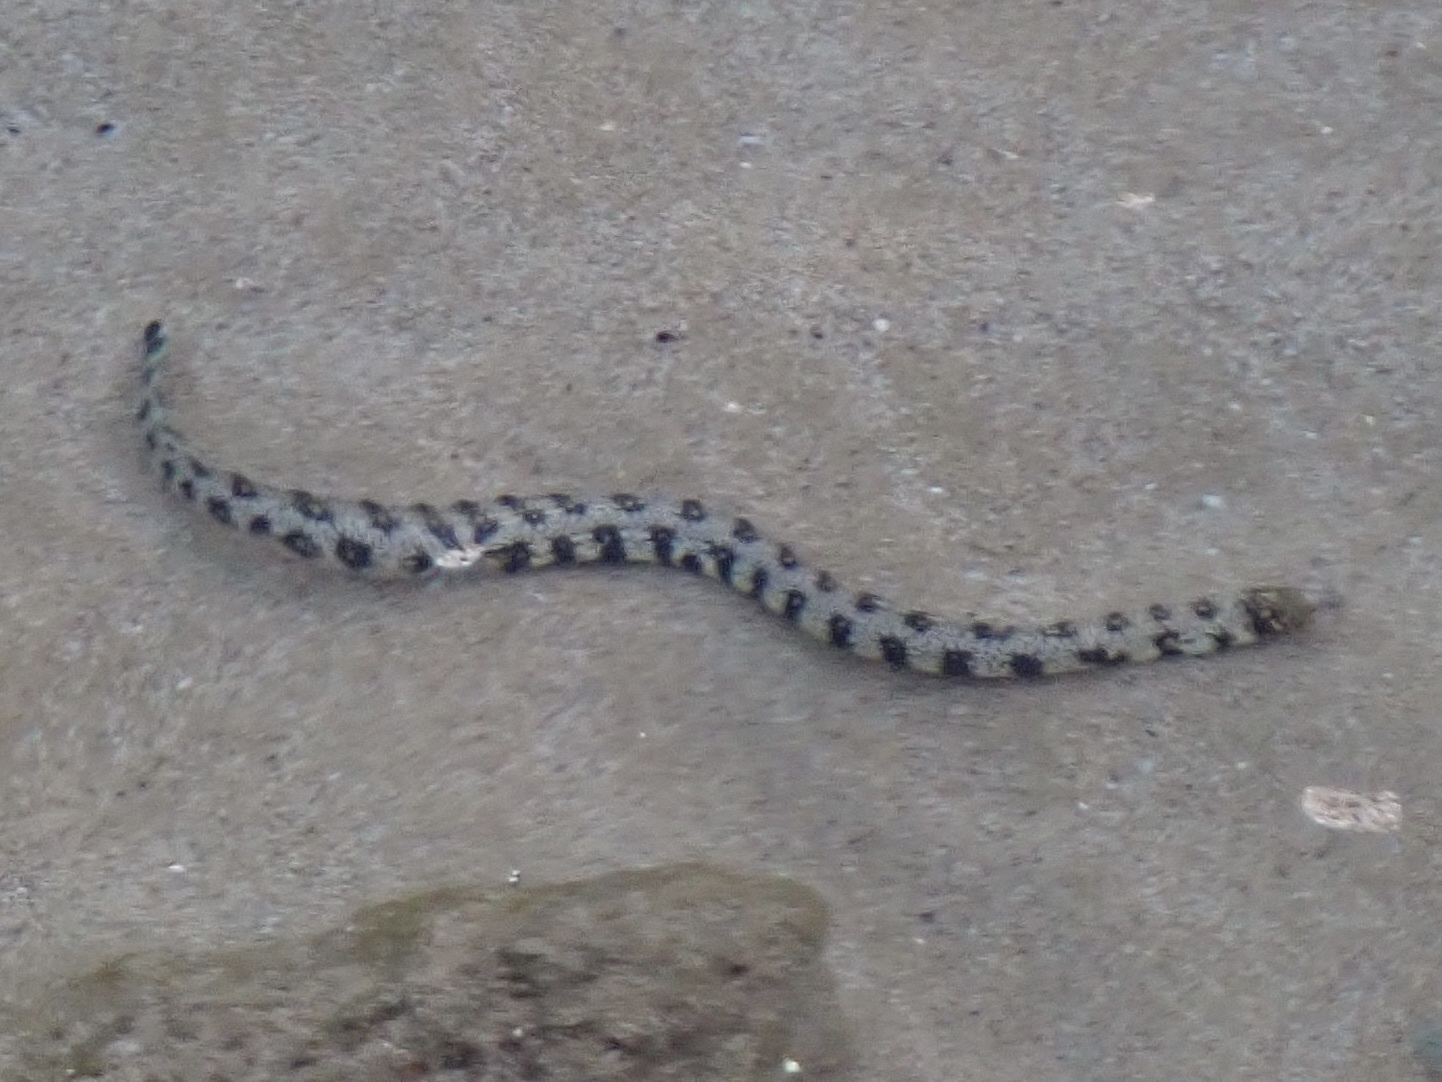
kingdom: Animalia
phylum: Chordata
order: Anguilliformes
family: Muraenidae
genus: Echidna
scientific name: Echidna nebulosa
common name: Snowflake moray
